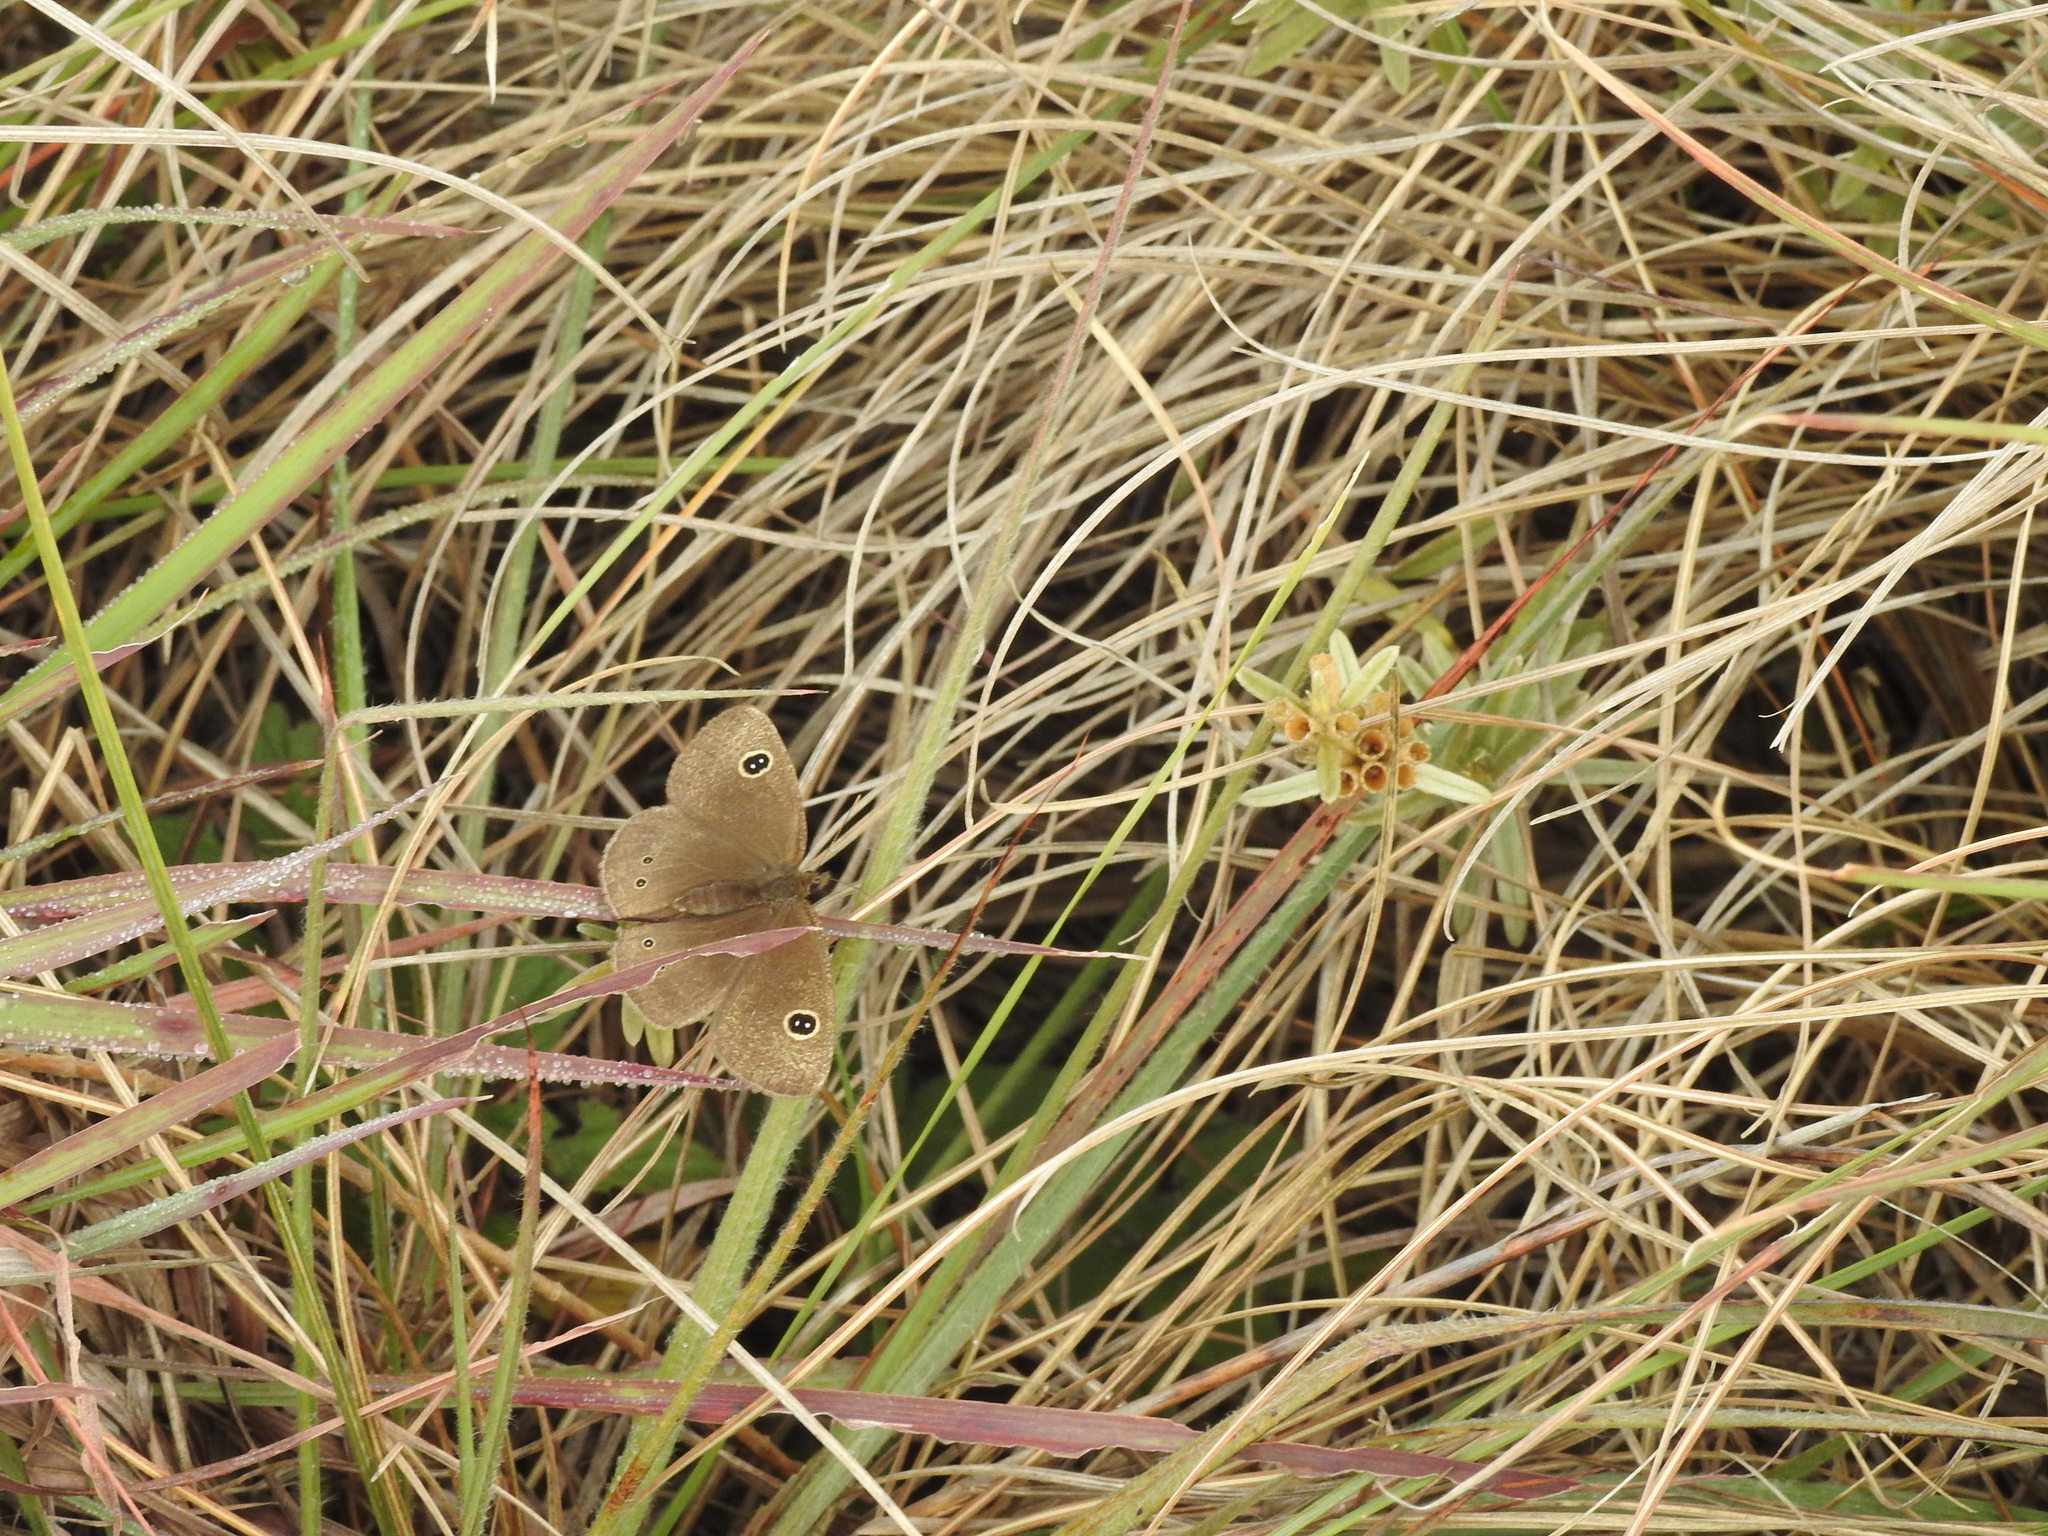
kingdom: Animalia
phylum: Arthropoda
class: Insecta
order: Lepidoptera
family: Nymphalidae
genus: Ypthima
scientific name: Ypthima ypthimoides
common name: Palni four-ring
